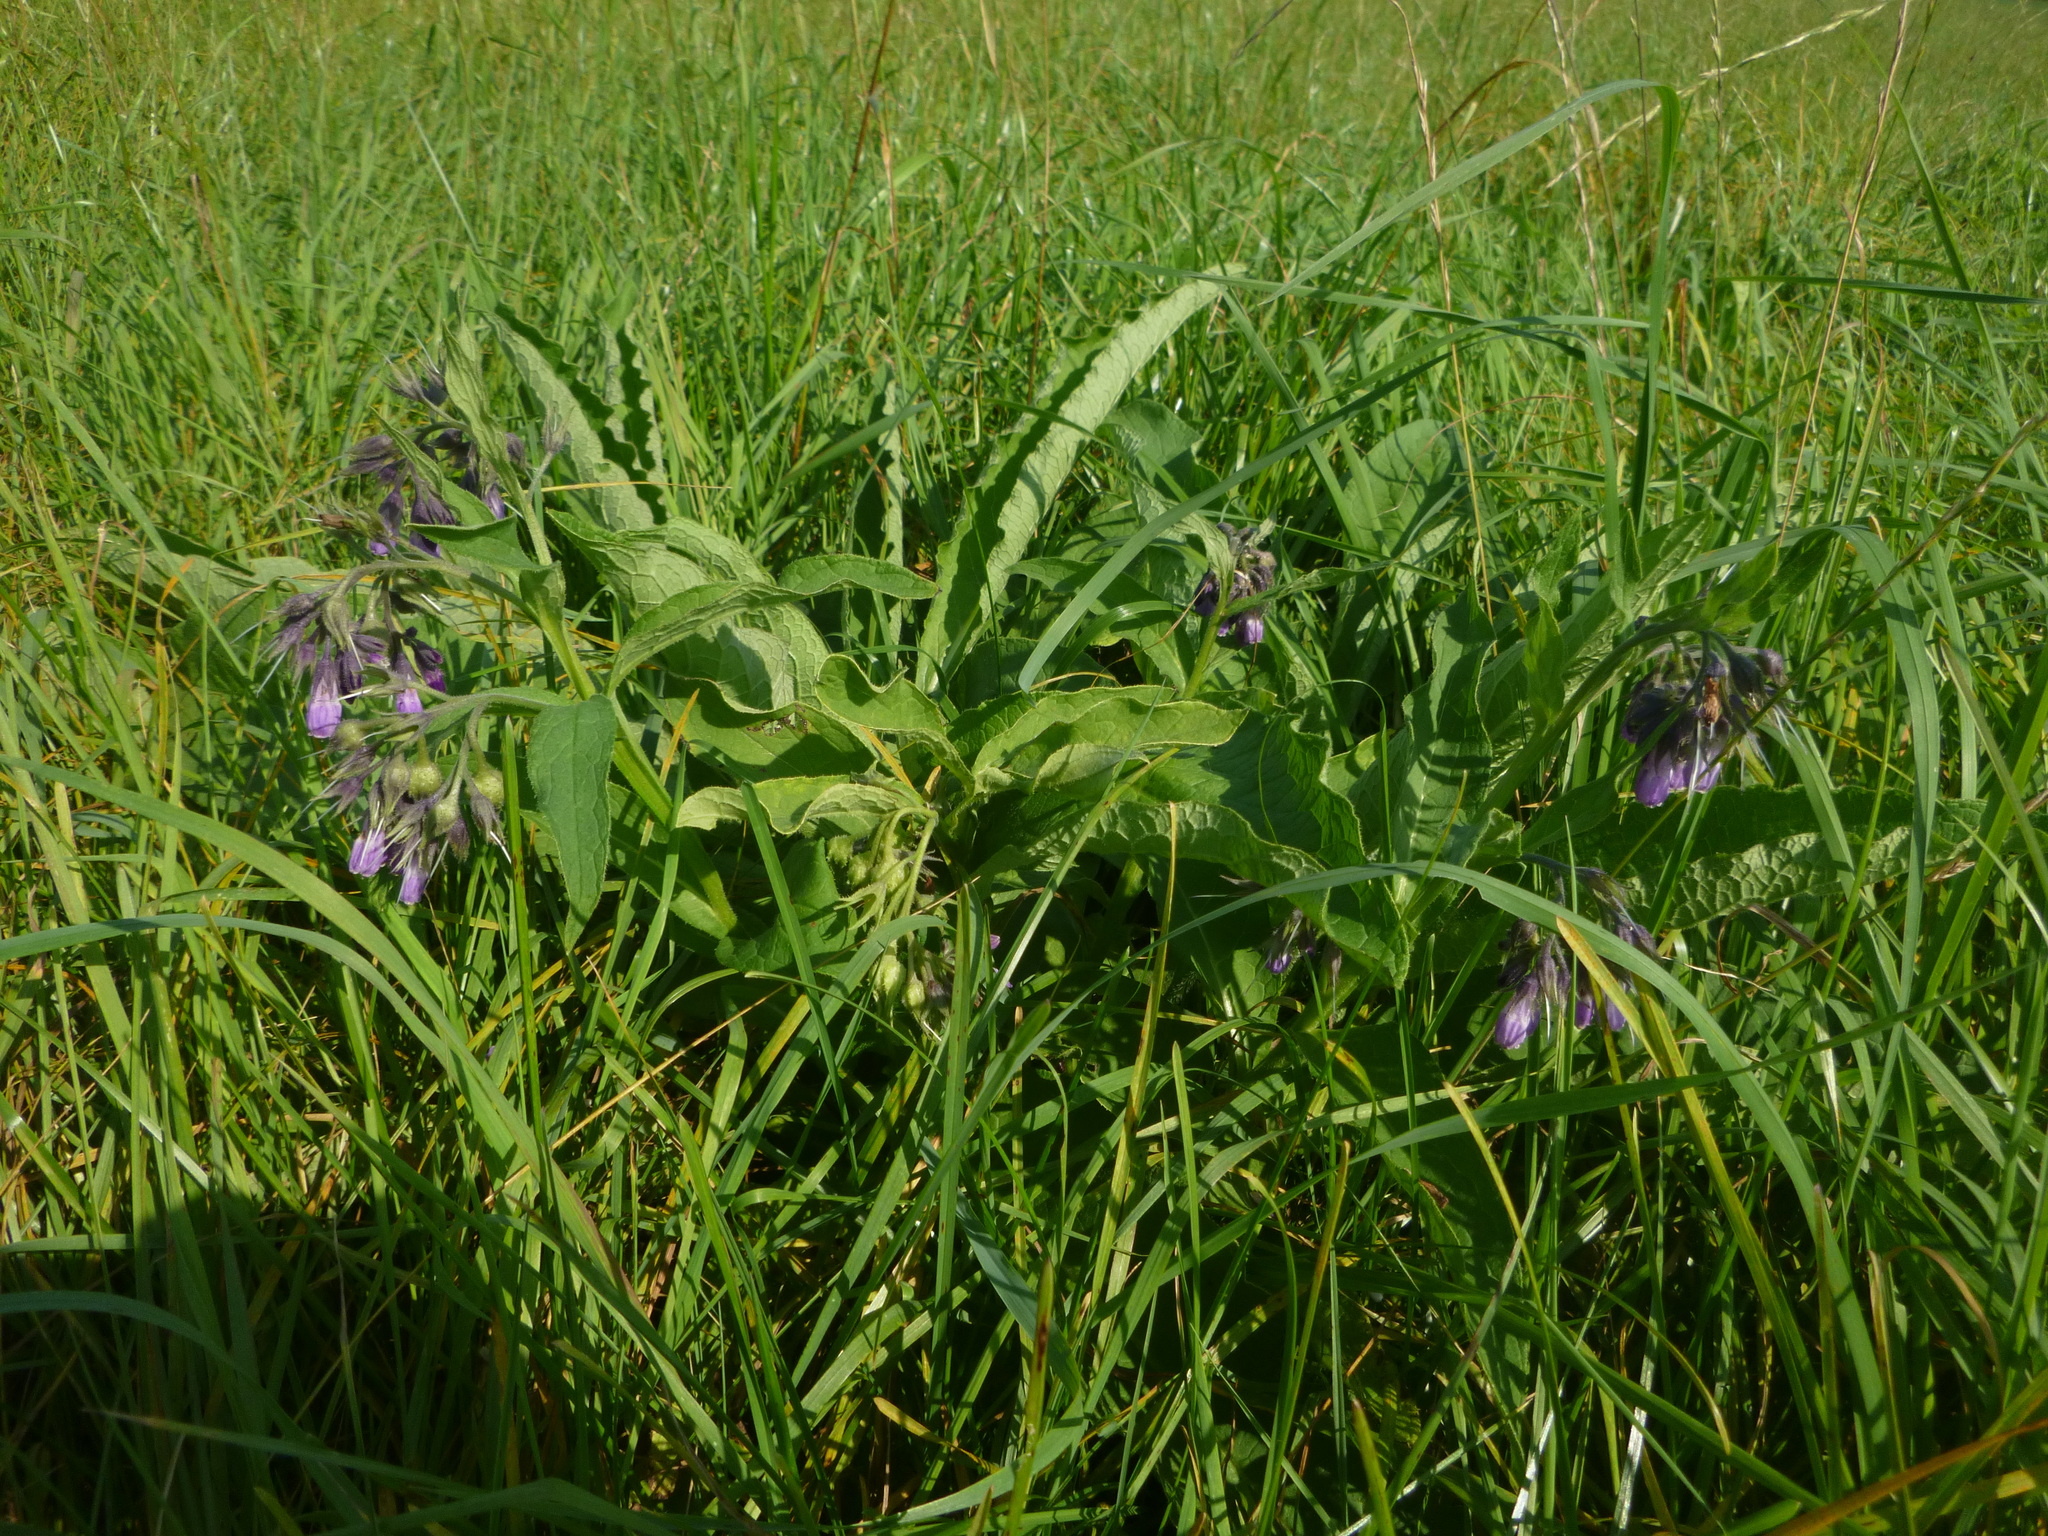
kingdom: Plantae
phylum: Tracheophyta
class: Magnoliopsida
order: Boraginales
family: Boraginaceae
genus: Symphytum
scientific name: Symphytum officinale
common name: Common comfrey
